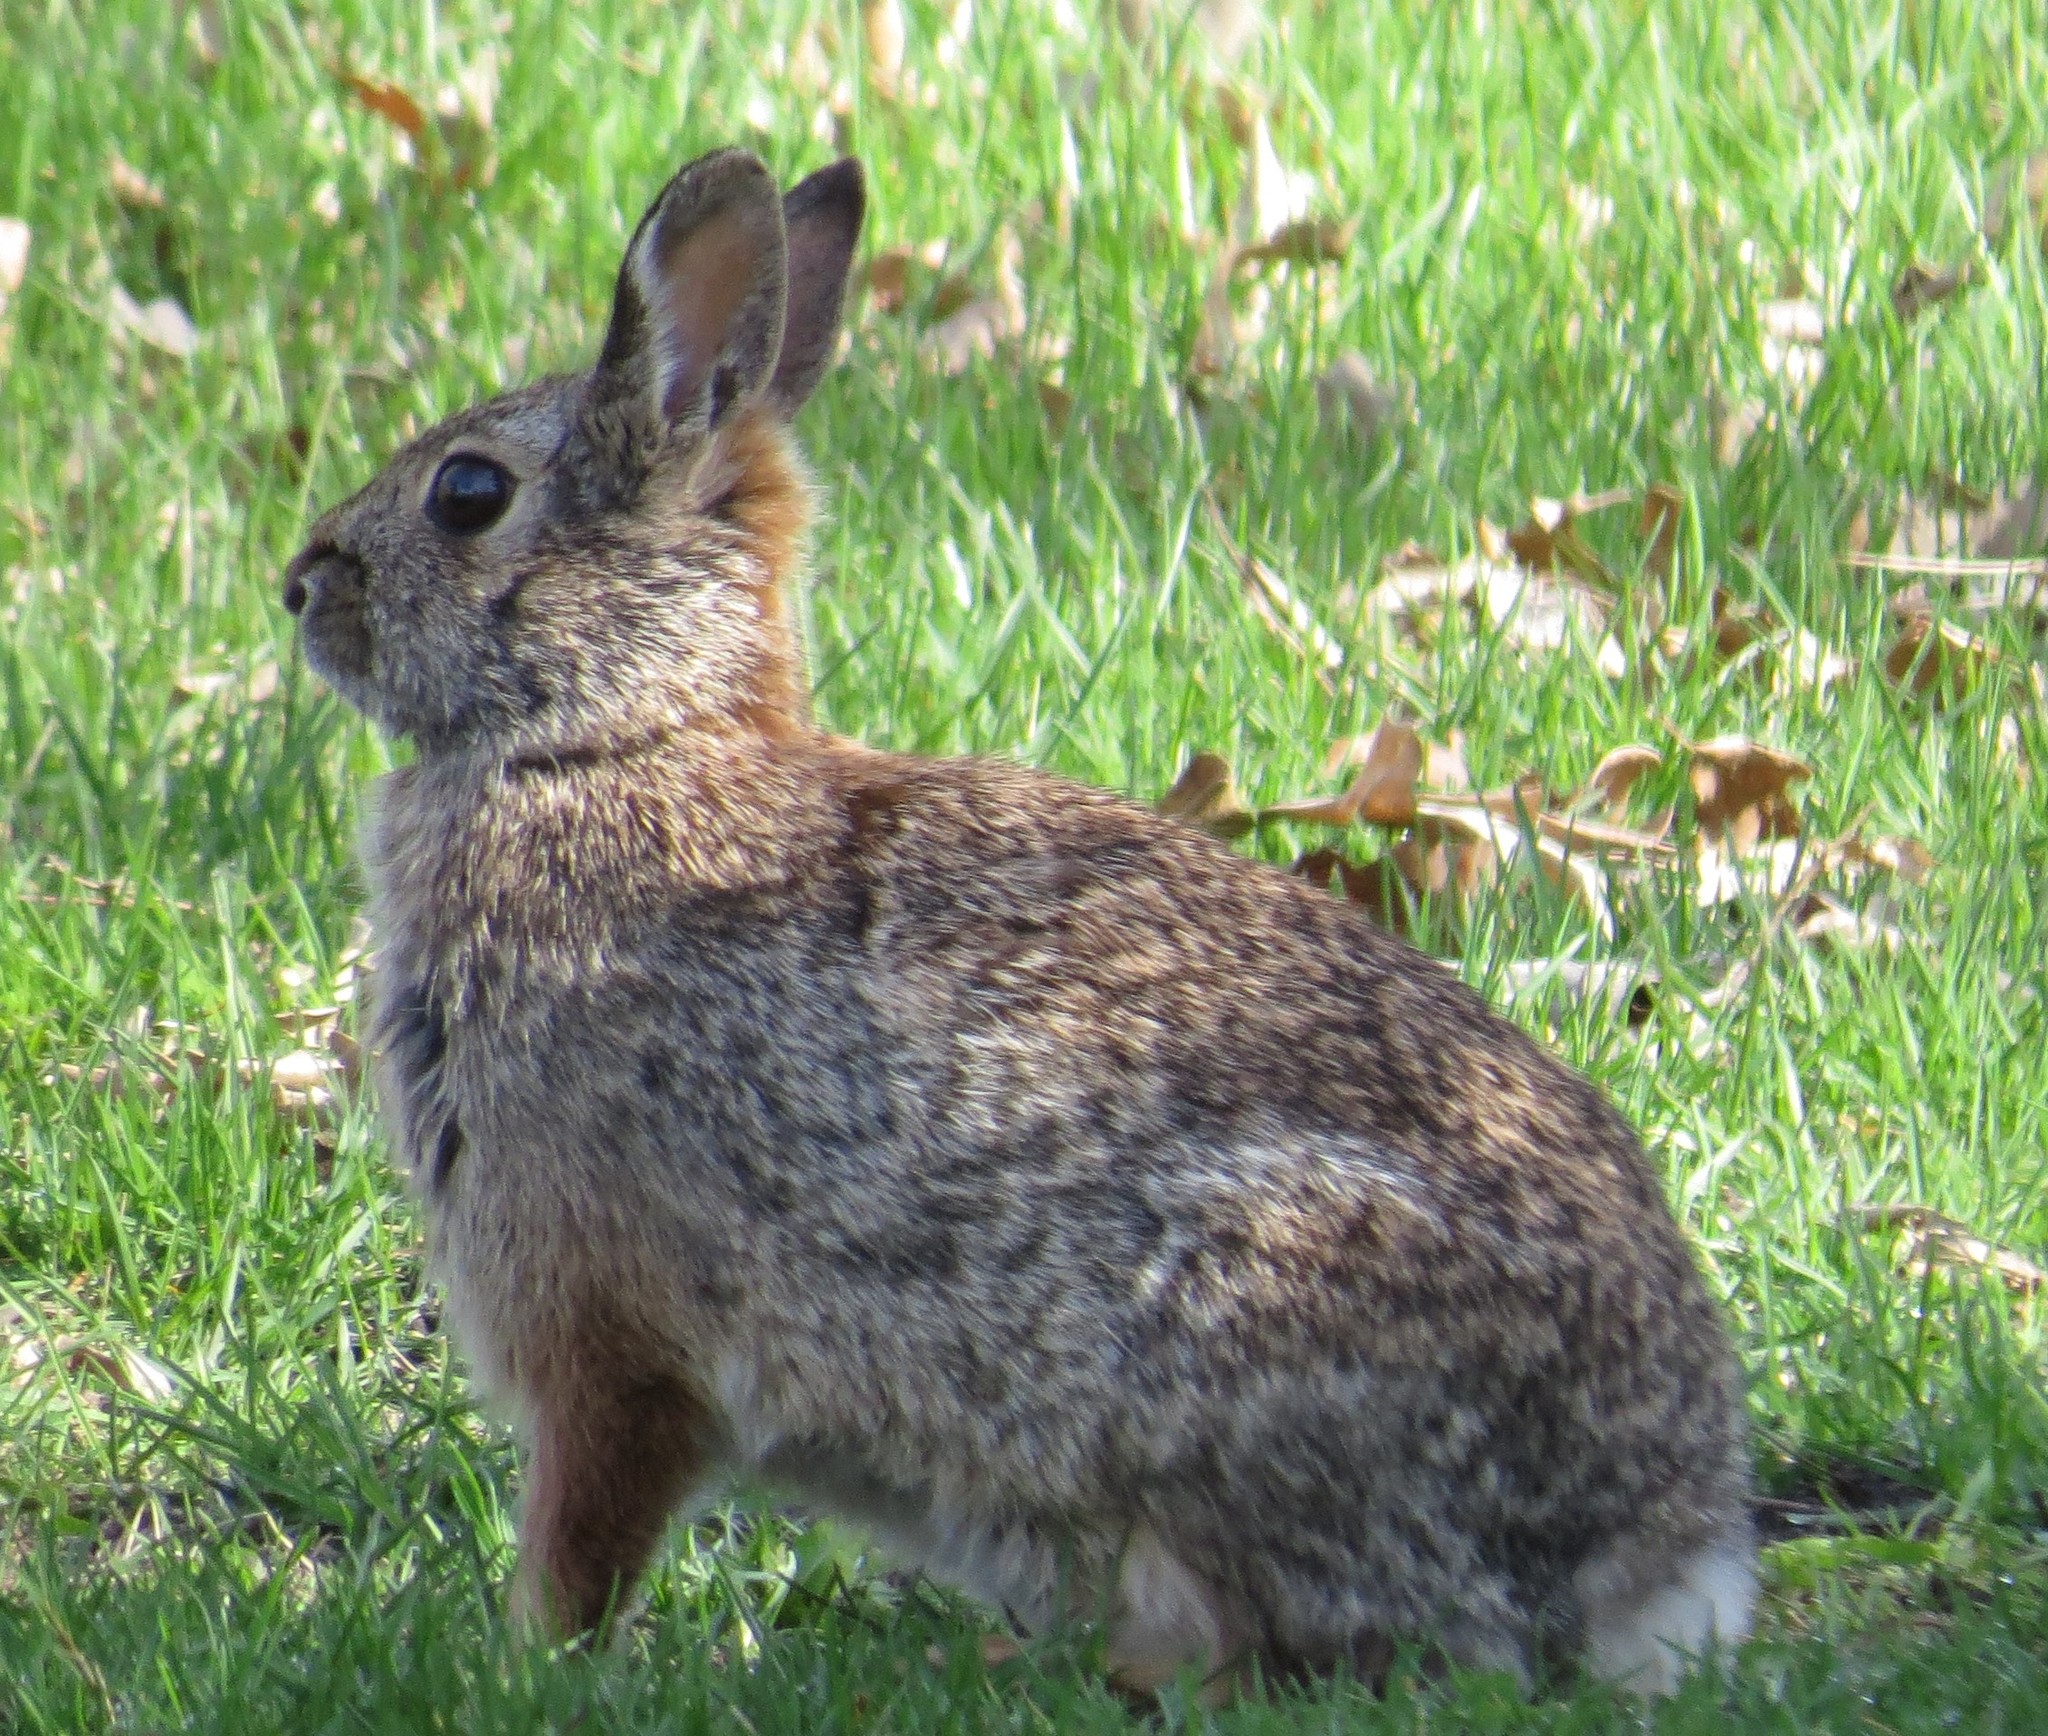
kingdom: Animalia
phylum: Chordata
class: Mammalia
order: Lagomorpha
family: Leporidae
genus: Sylvilagus
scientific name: Sylvilagus floridanus
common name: Eastern cottontail
